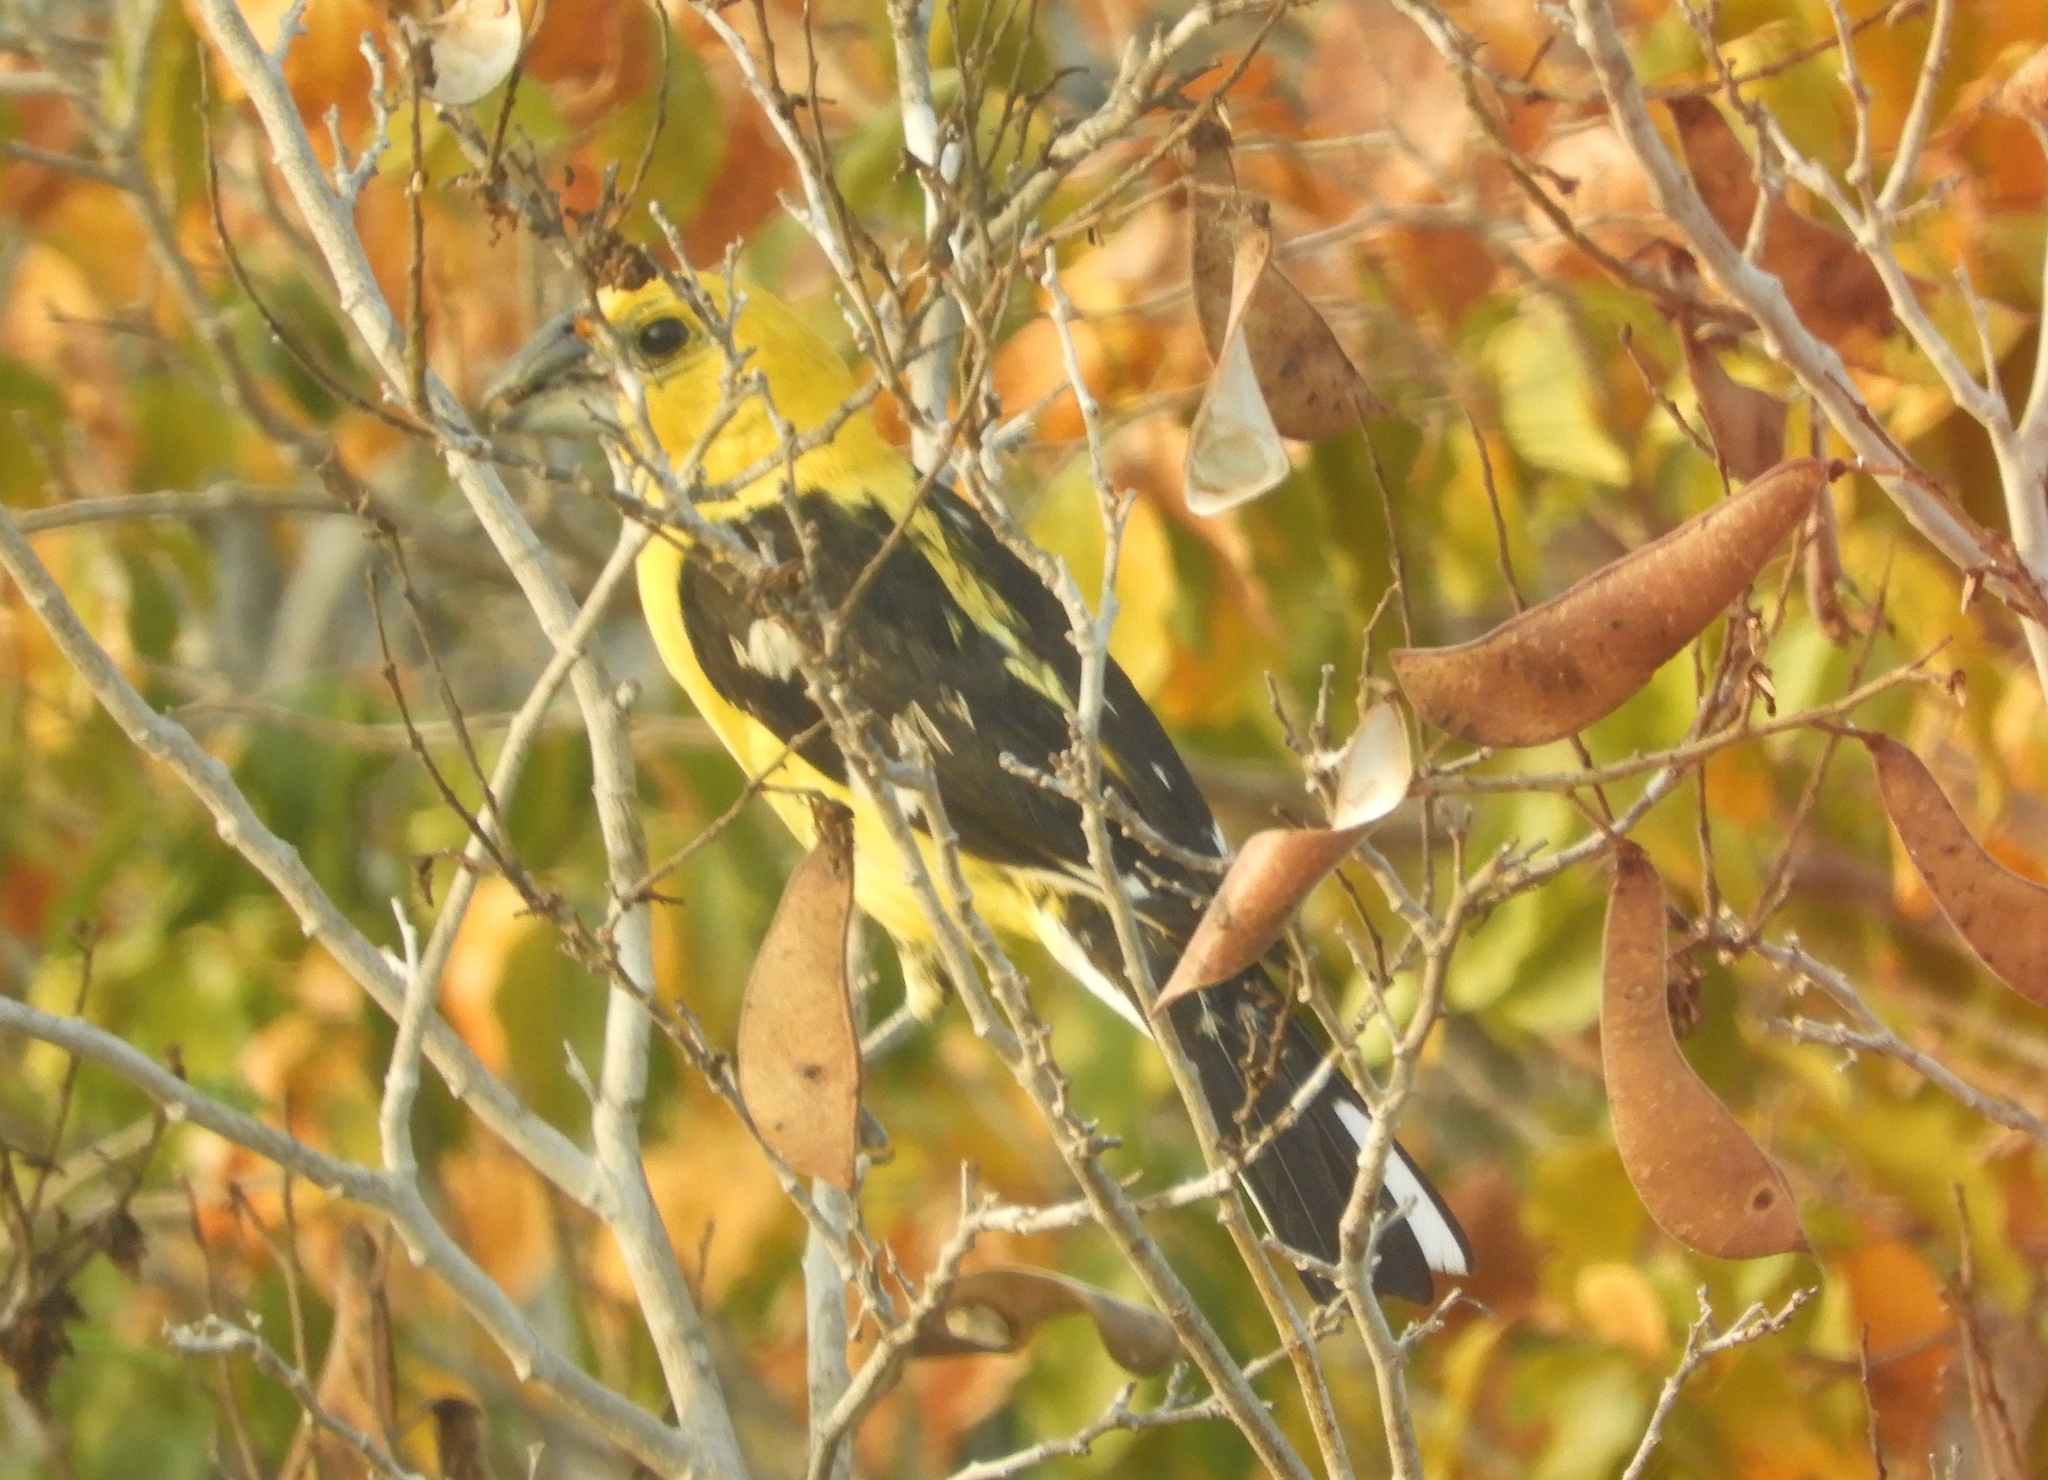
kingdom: Animalia
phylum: Chordata
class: Aves
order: Passeriformes
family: Cardinalidae
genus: Pheucticus
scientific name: Pheucticus chrysopeplus
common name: Yellow grosbeak
